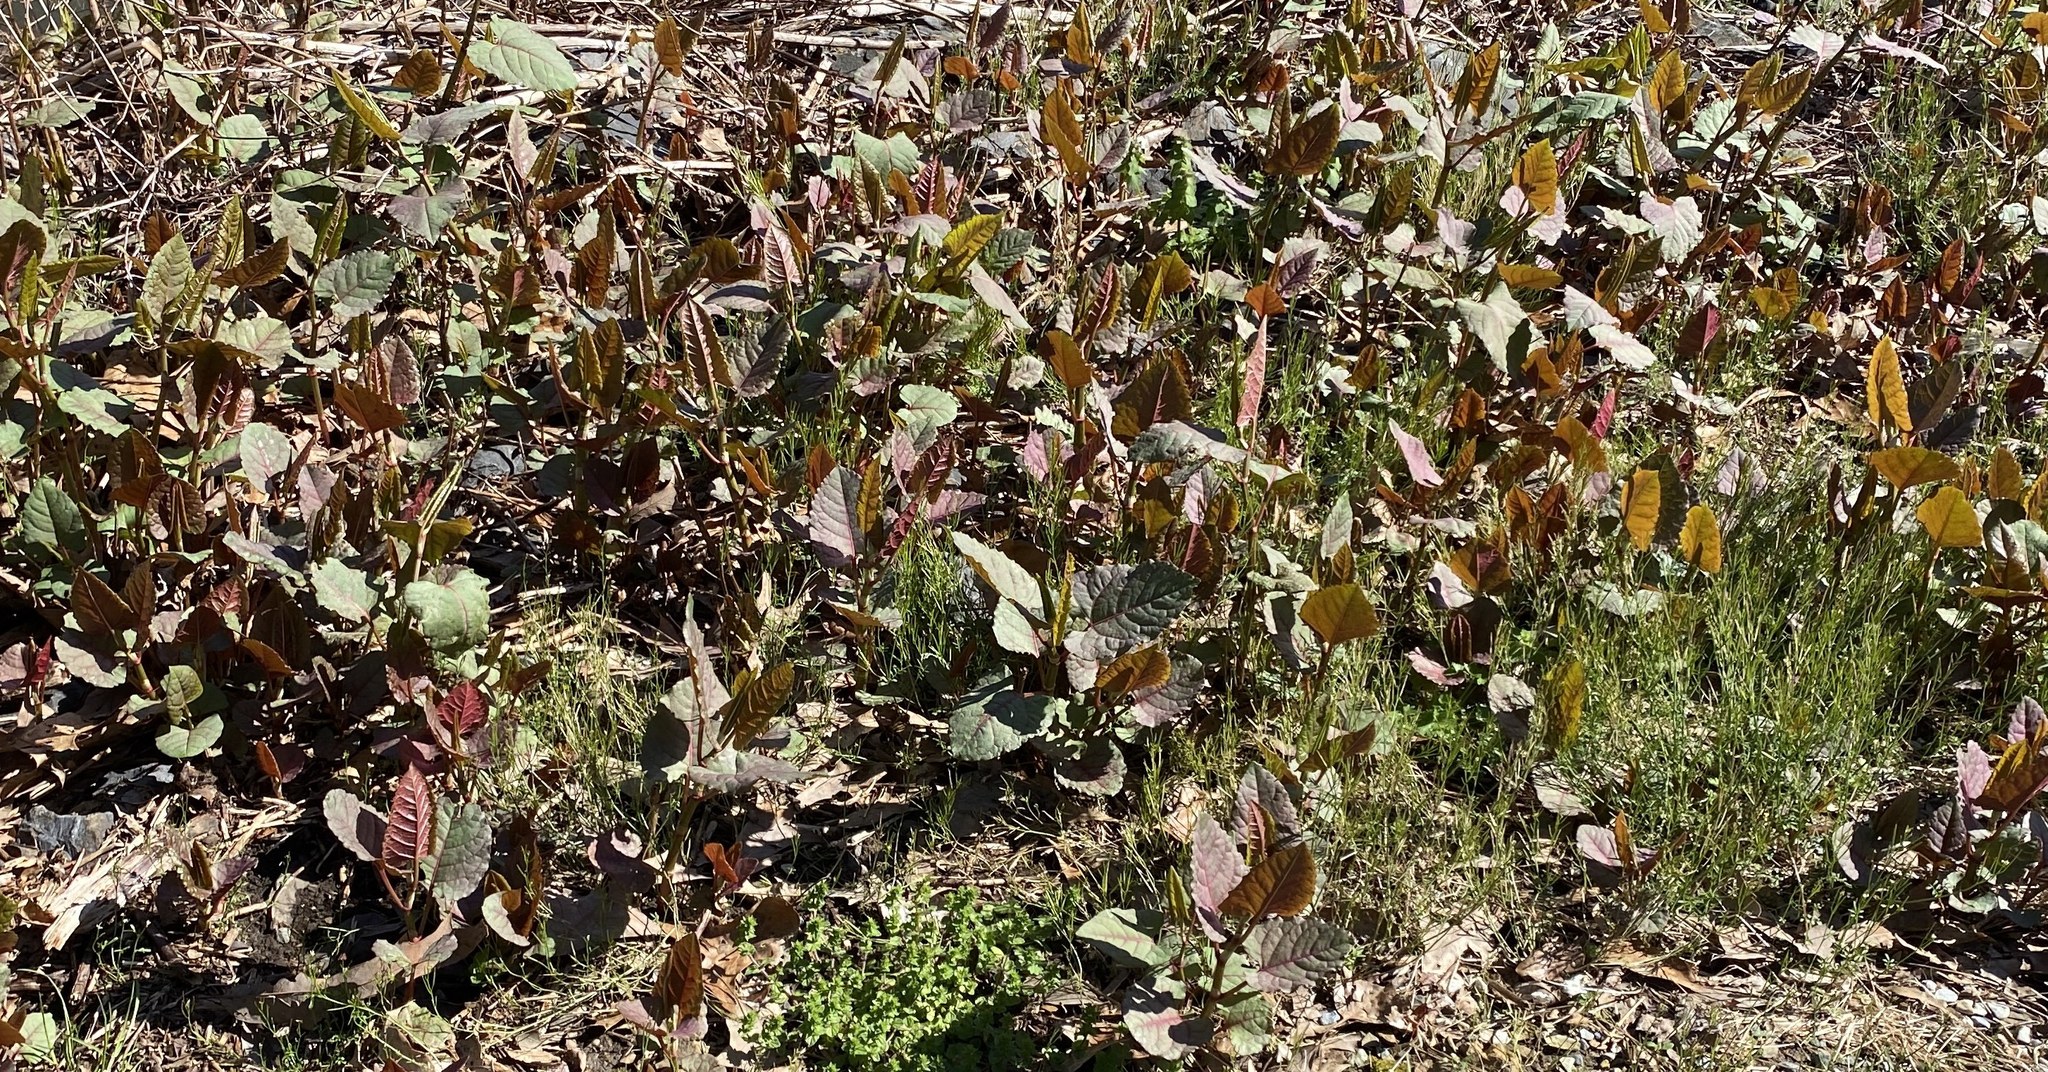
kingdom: Plantae
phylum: Tracheophyta
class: Magnoliopsida
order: Caryophyllales
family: Polygonaceae
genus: Reynoutria
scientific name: Reynoutria japonica
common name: Japanese knotweed
